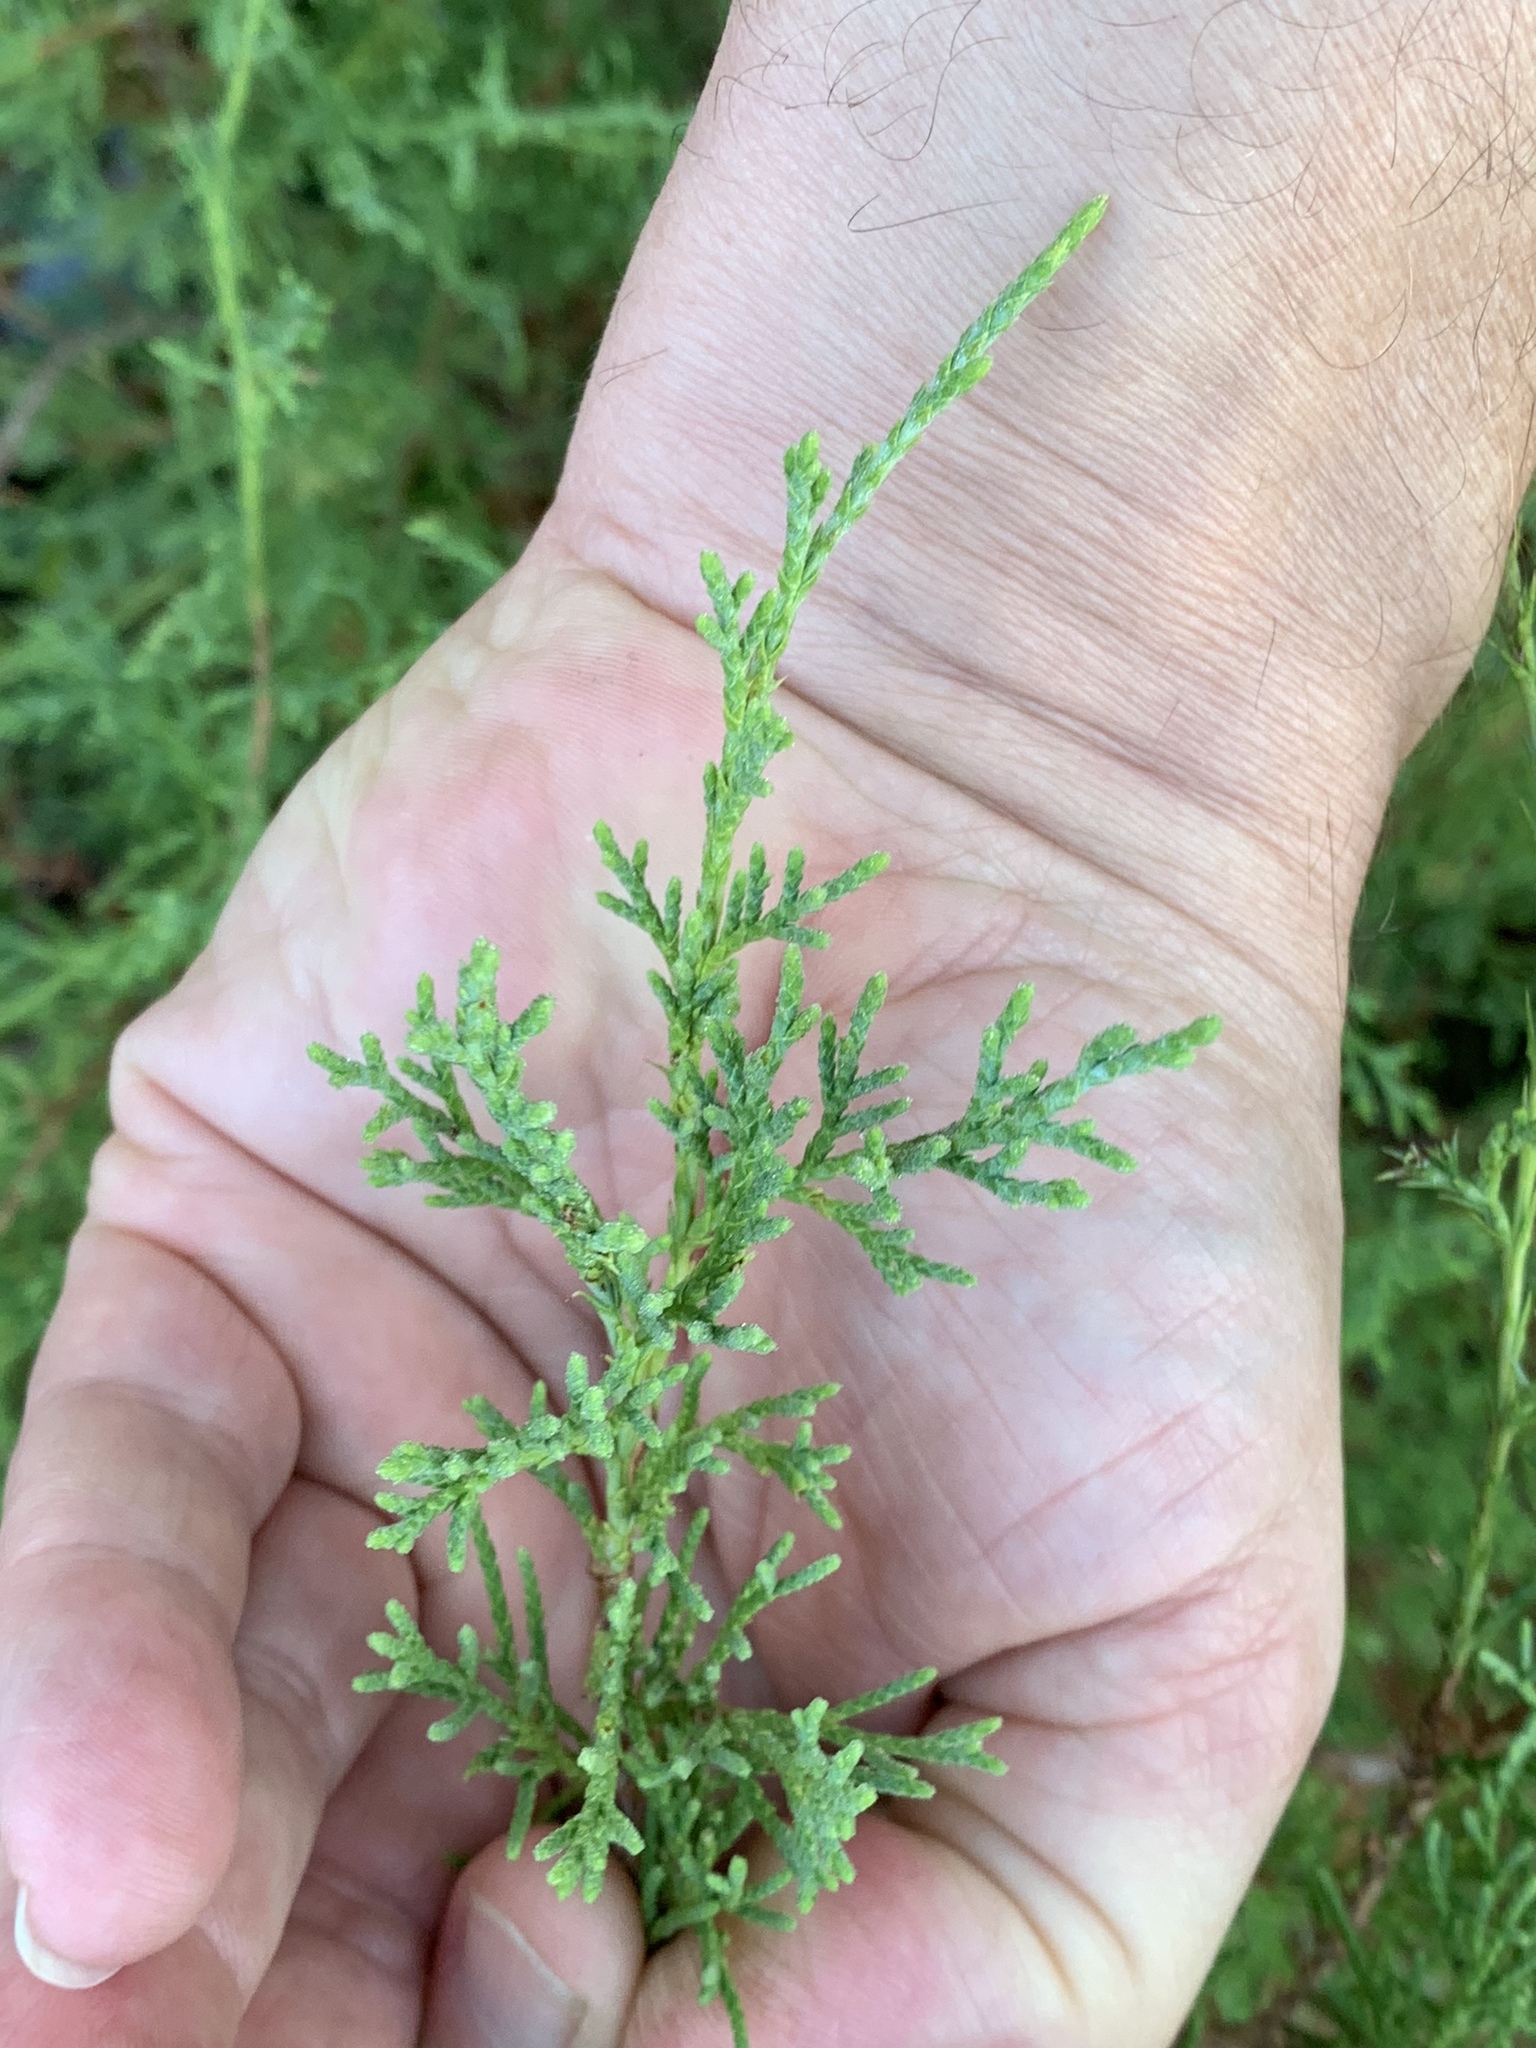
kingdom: Plantae
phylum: Tracheophyta
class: Pinopsida
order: Pinales
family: Cupressaceae
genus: Juniperus
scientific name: Juniperus virginiana
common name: Red juniper
